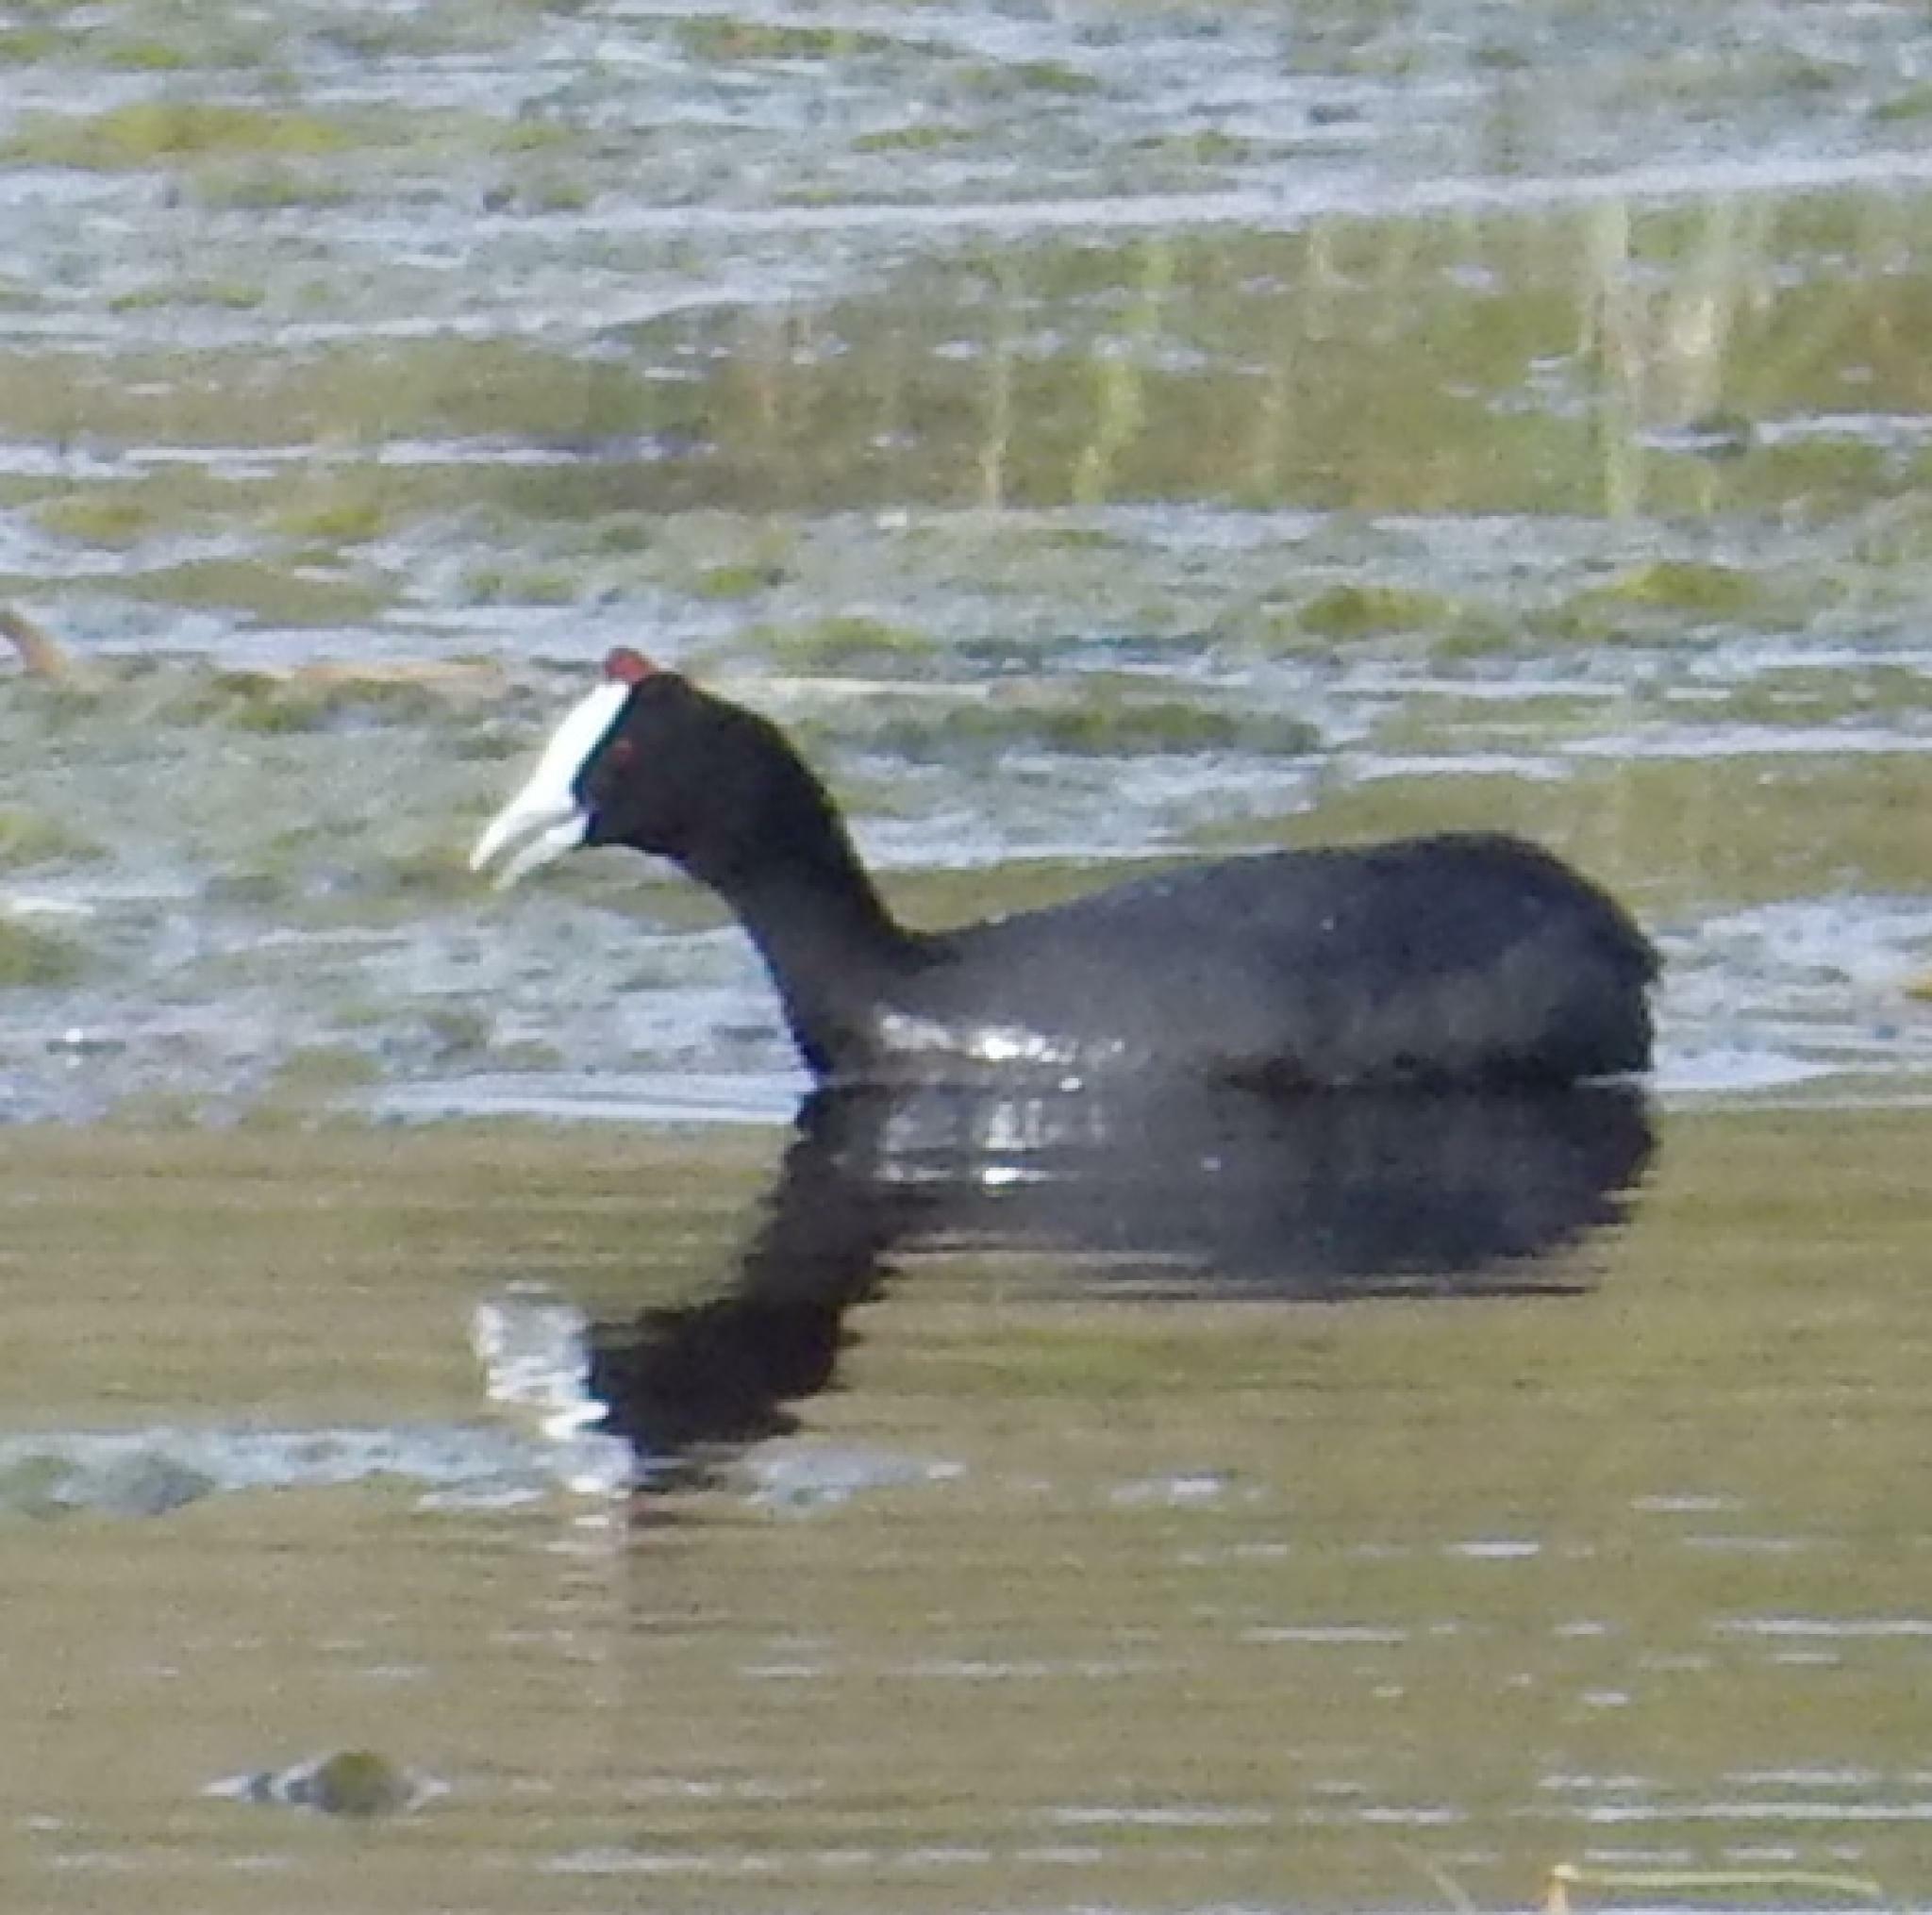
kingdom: Animalia
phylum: Chordata
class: Aves
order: Gruiformes
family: Rallidae
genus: Fulica
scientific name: Fulica cristata
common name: Red-knobbed coot
